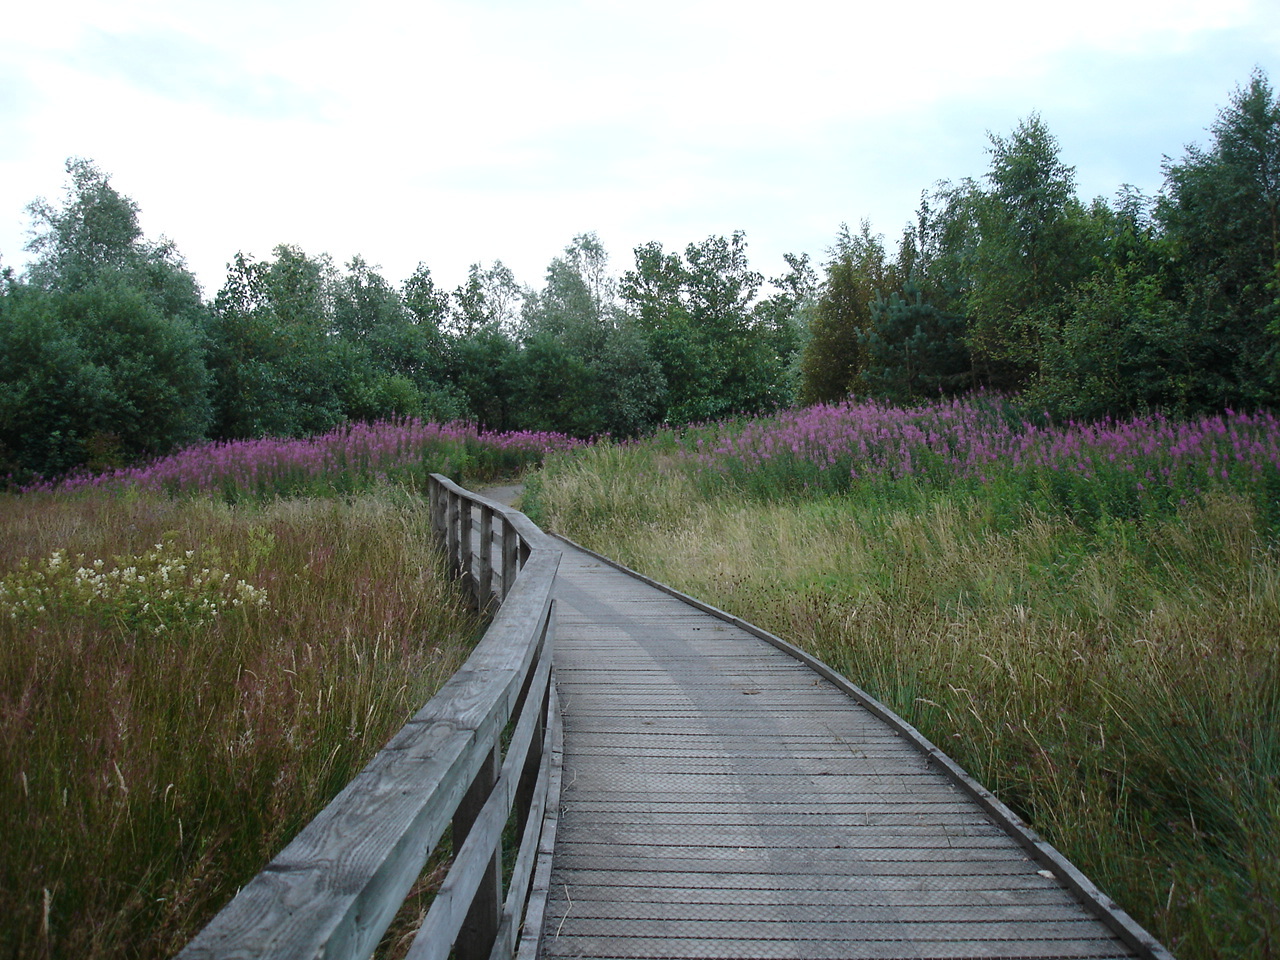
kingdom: Plantae
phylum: Tracheophyta
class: Magnoliopsida
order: Myrtales
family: Onagraceae
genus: Chamaenerion
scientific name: Chamaenerion angustifolium
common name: Fireweed
